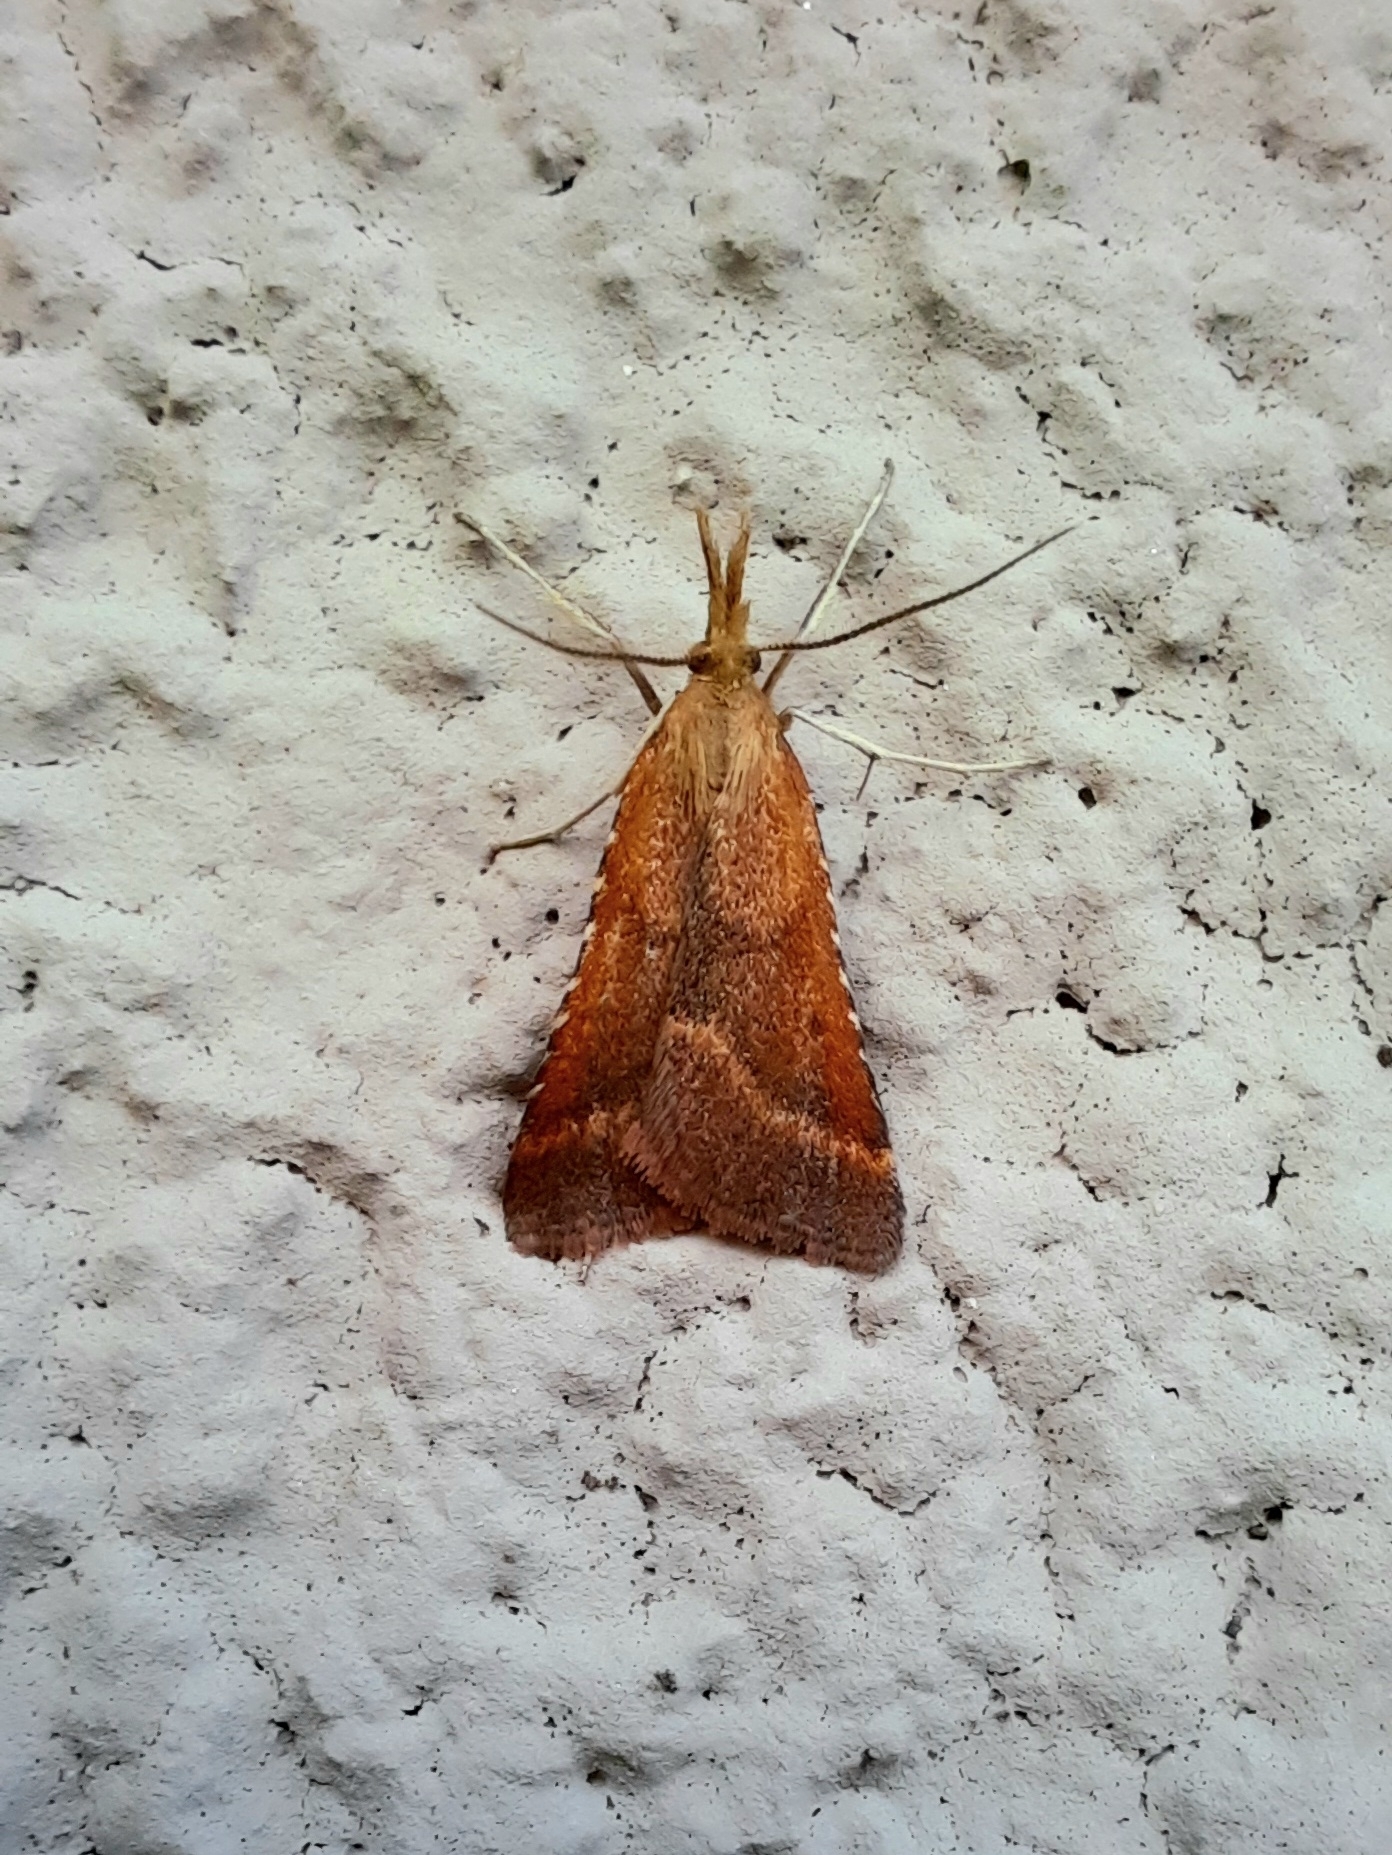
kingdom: Animalia
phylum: Arthropoda
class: Insecta
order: Lepidoptera
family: Pyralidae
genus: Synaphe
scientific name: Synaphe punctalis
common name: Long-legged tabby
